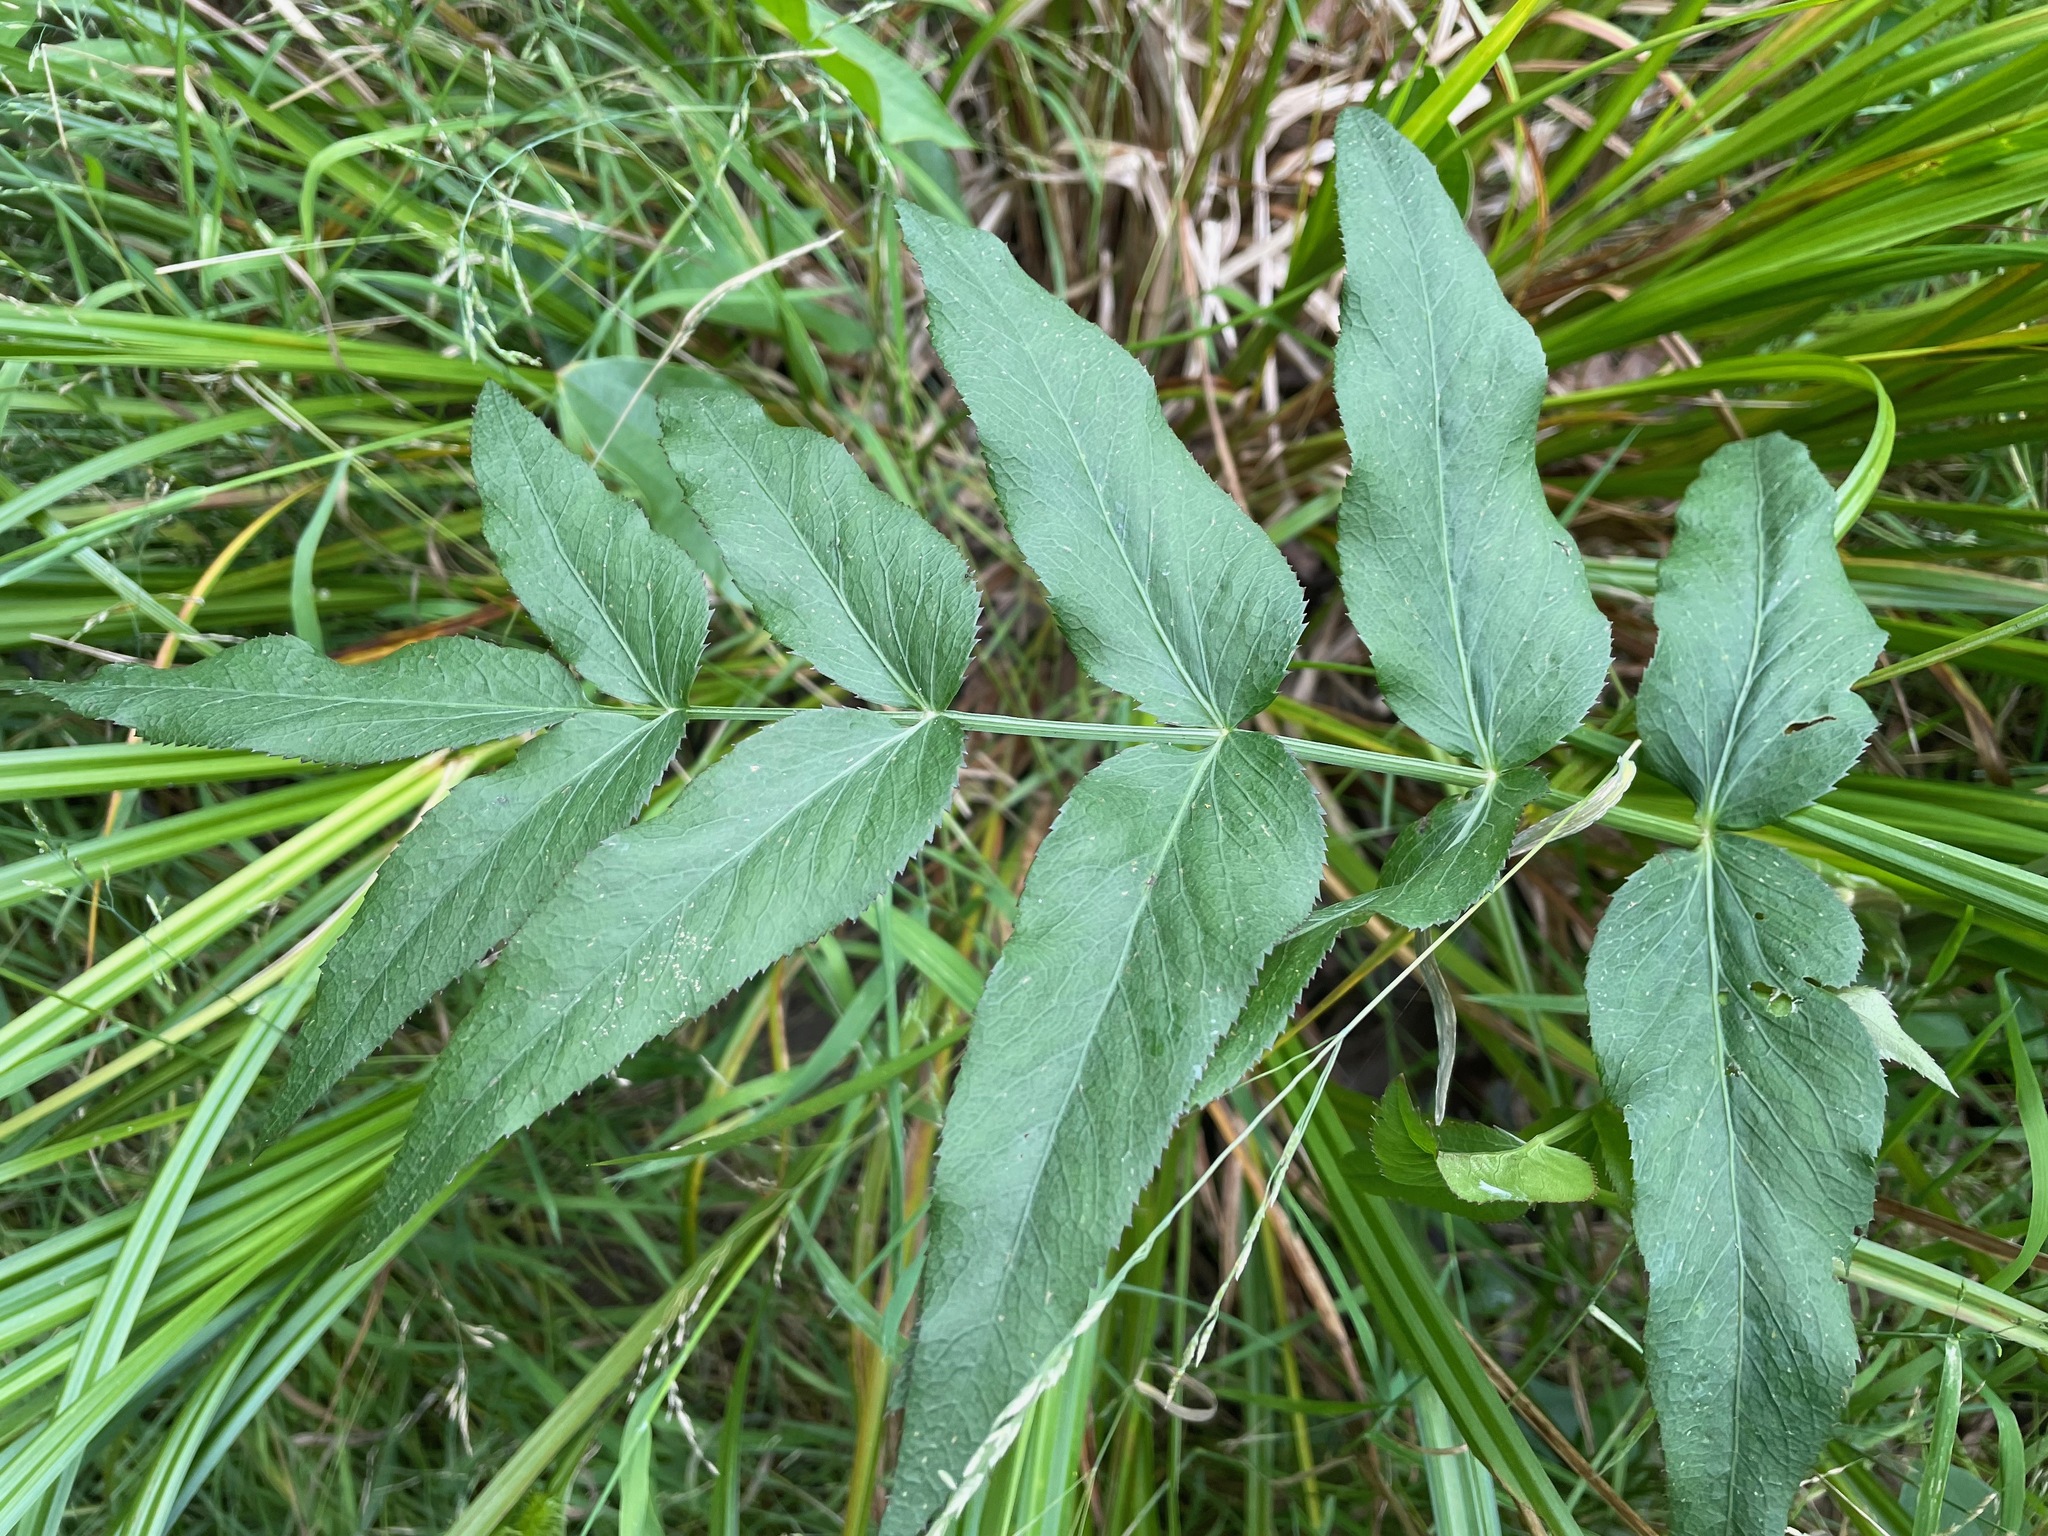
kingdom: Plantae
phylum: Tracheophyta
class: Magnoliopsida
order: Apiales
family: Apiaceae
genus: Sium
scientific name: Sium suave
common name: Hemlock water-parsnip
